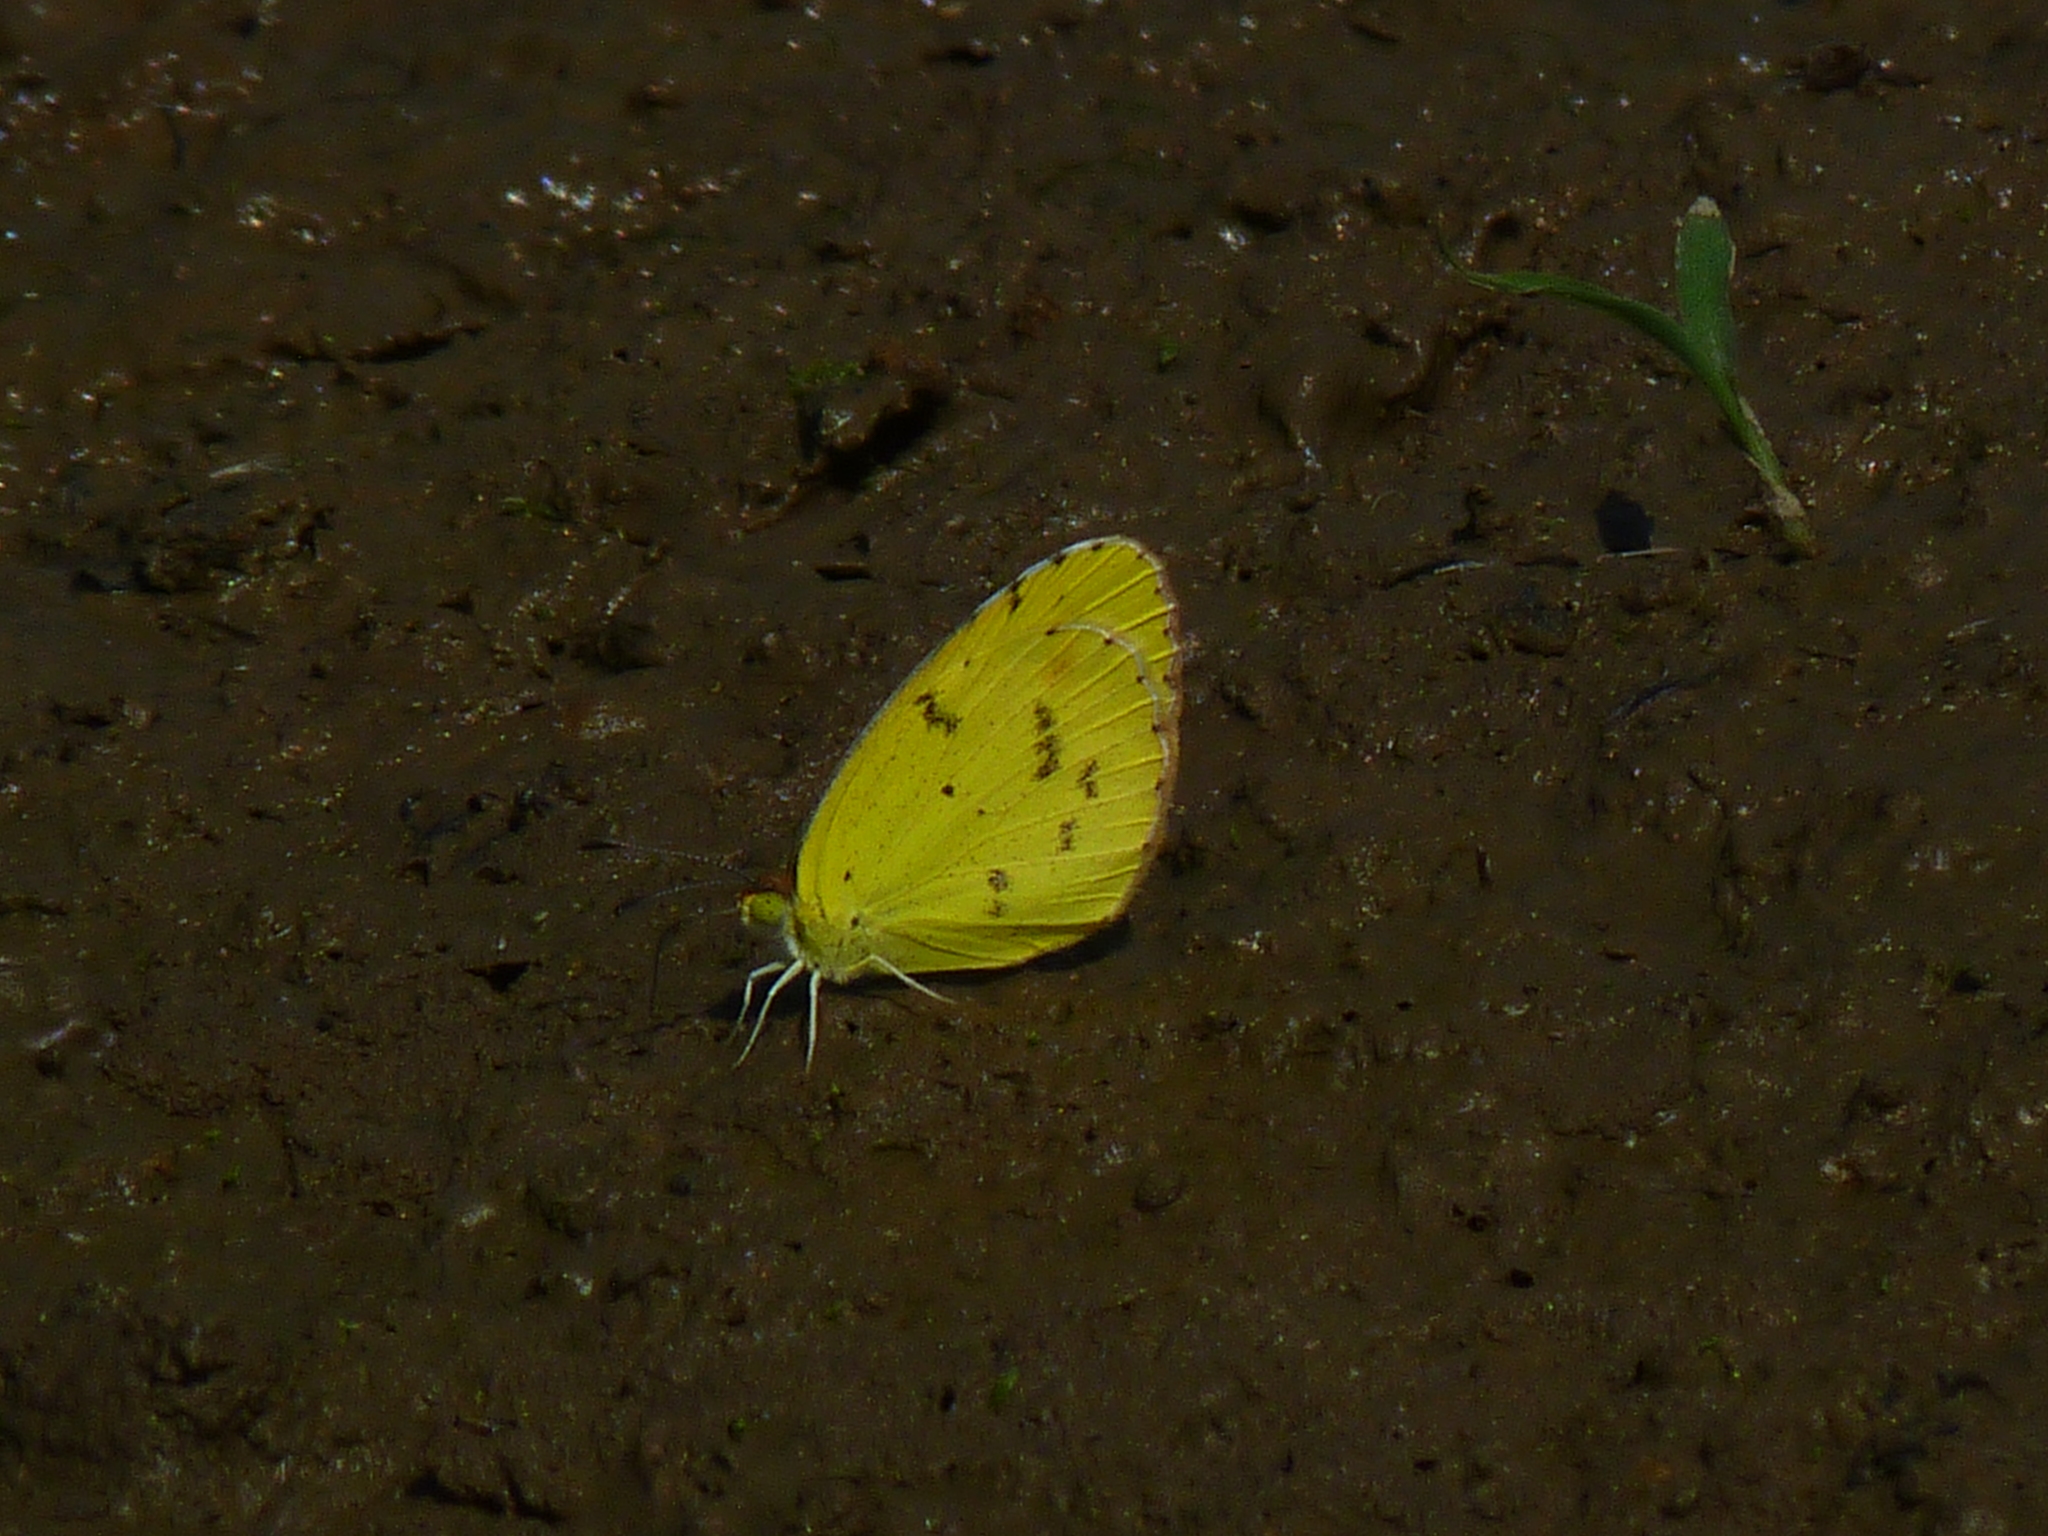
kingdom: Animalia
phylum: Arthropoda
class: Insecta
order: Lepidoptera
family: Pieridae
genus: Pyrisitia
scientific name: Pyrisitia lisa
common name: Little yellow
